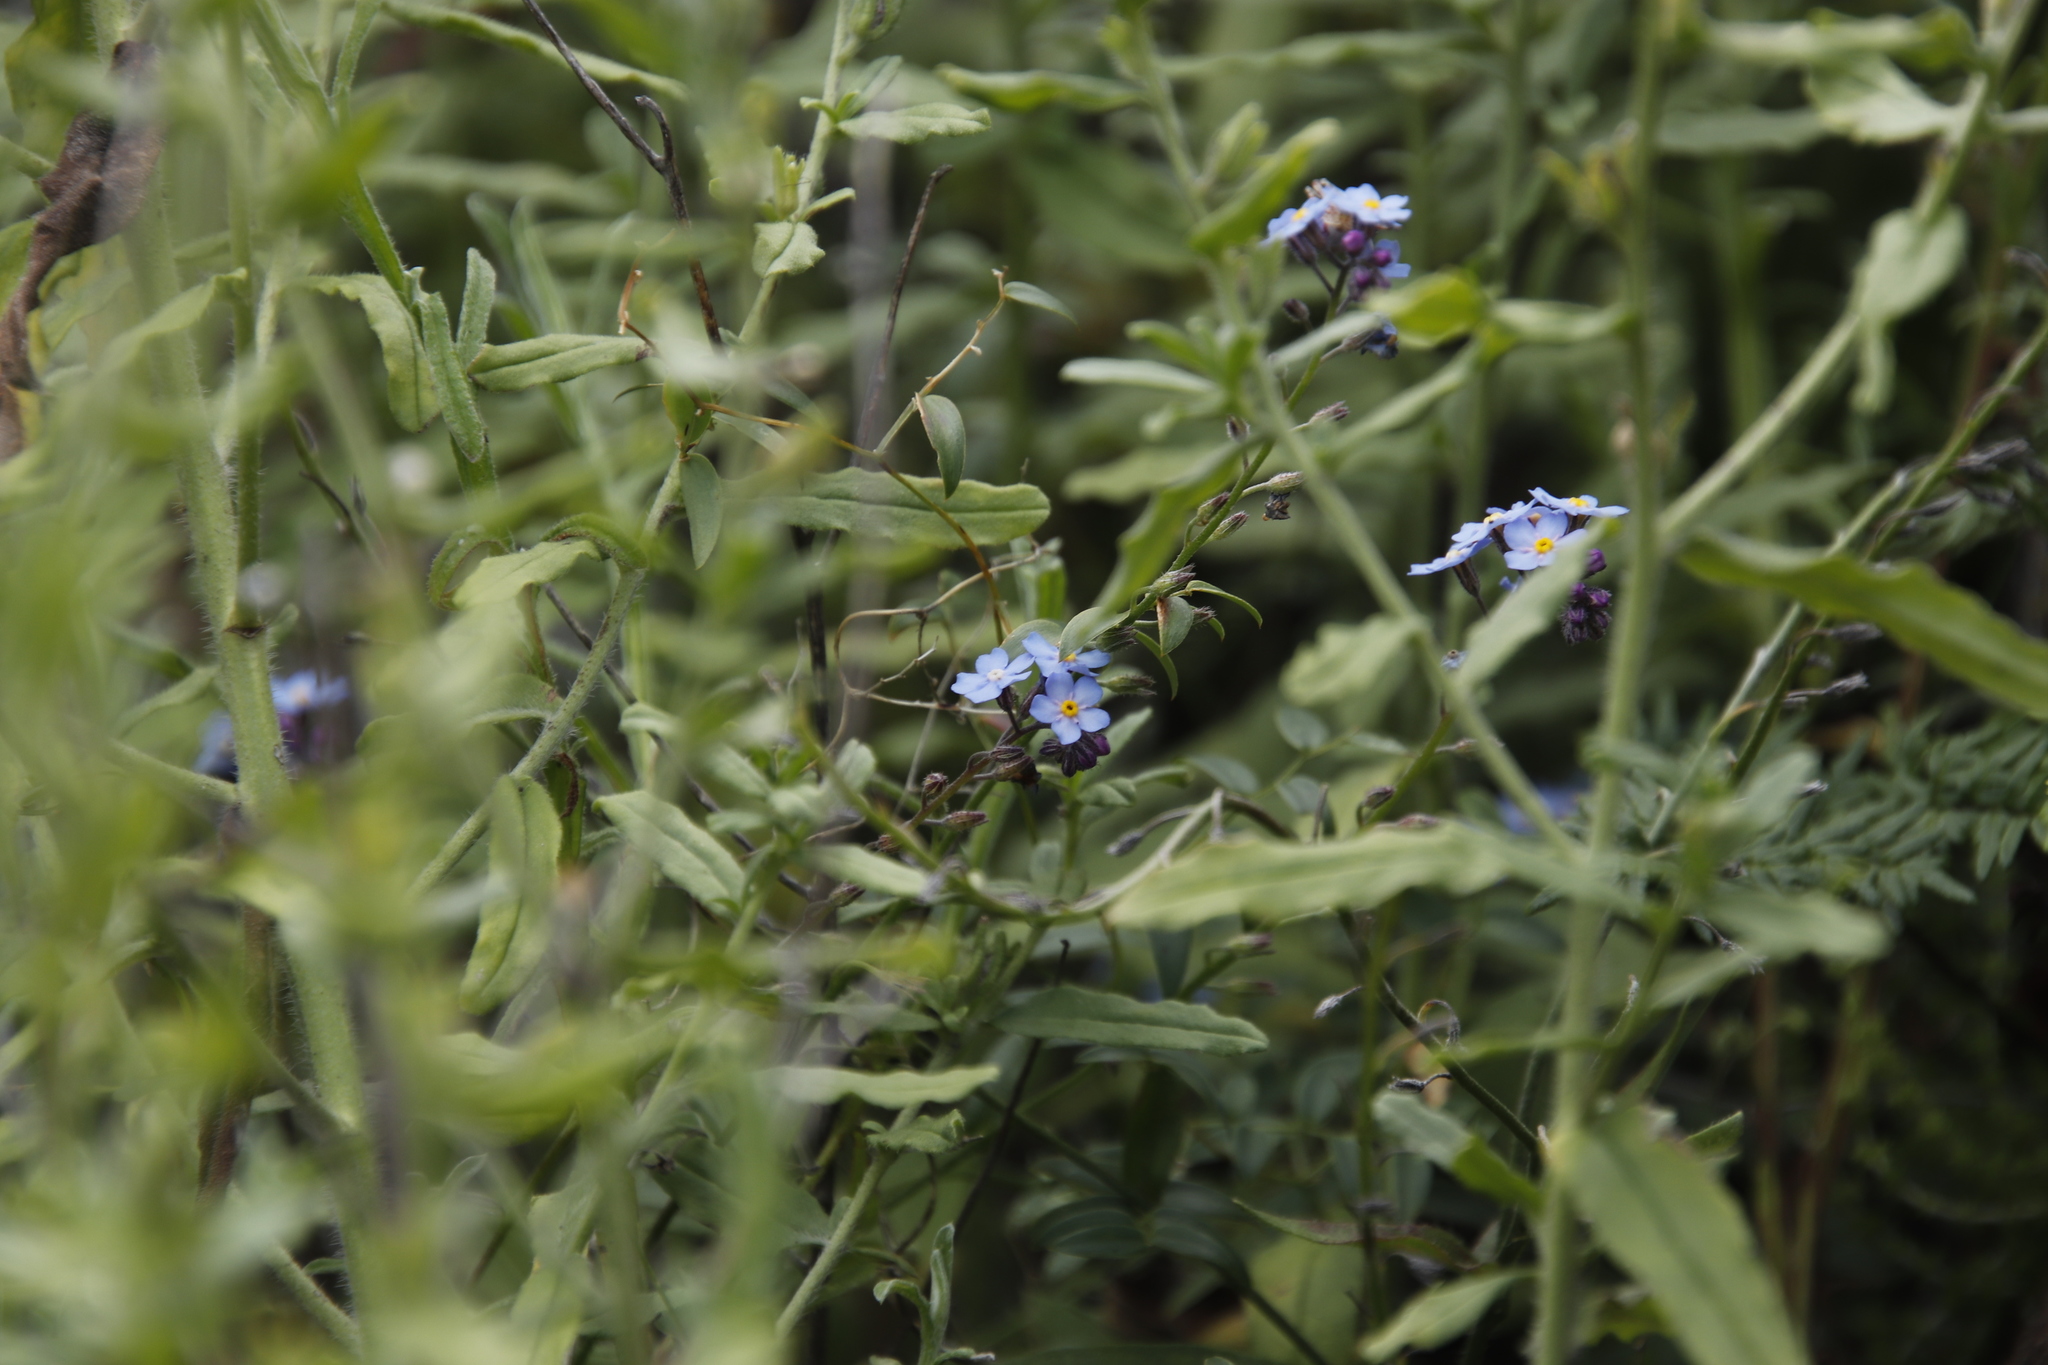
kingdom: Plantae
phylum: Tracheophyta
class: Magnoliopsida
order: Boraginales
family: Boraginaceae
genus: Myosotis
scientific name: Myosotis semiamplexicaulis
